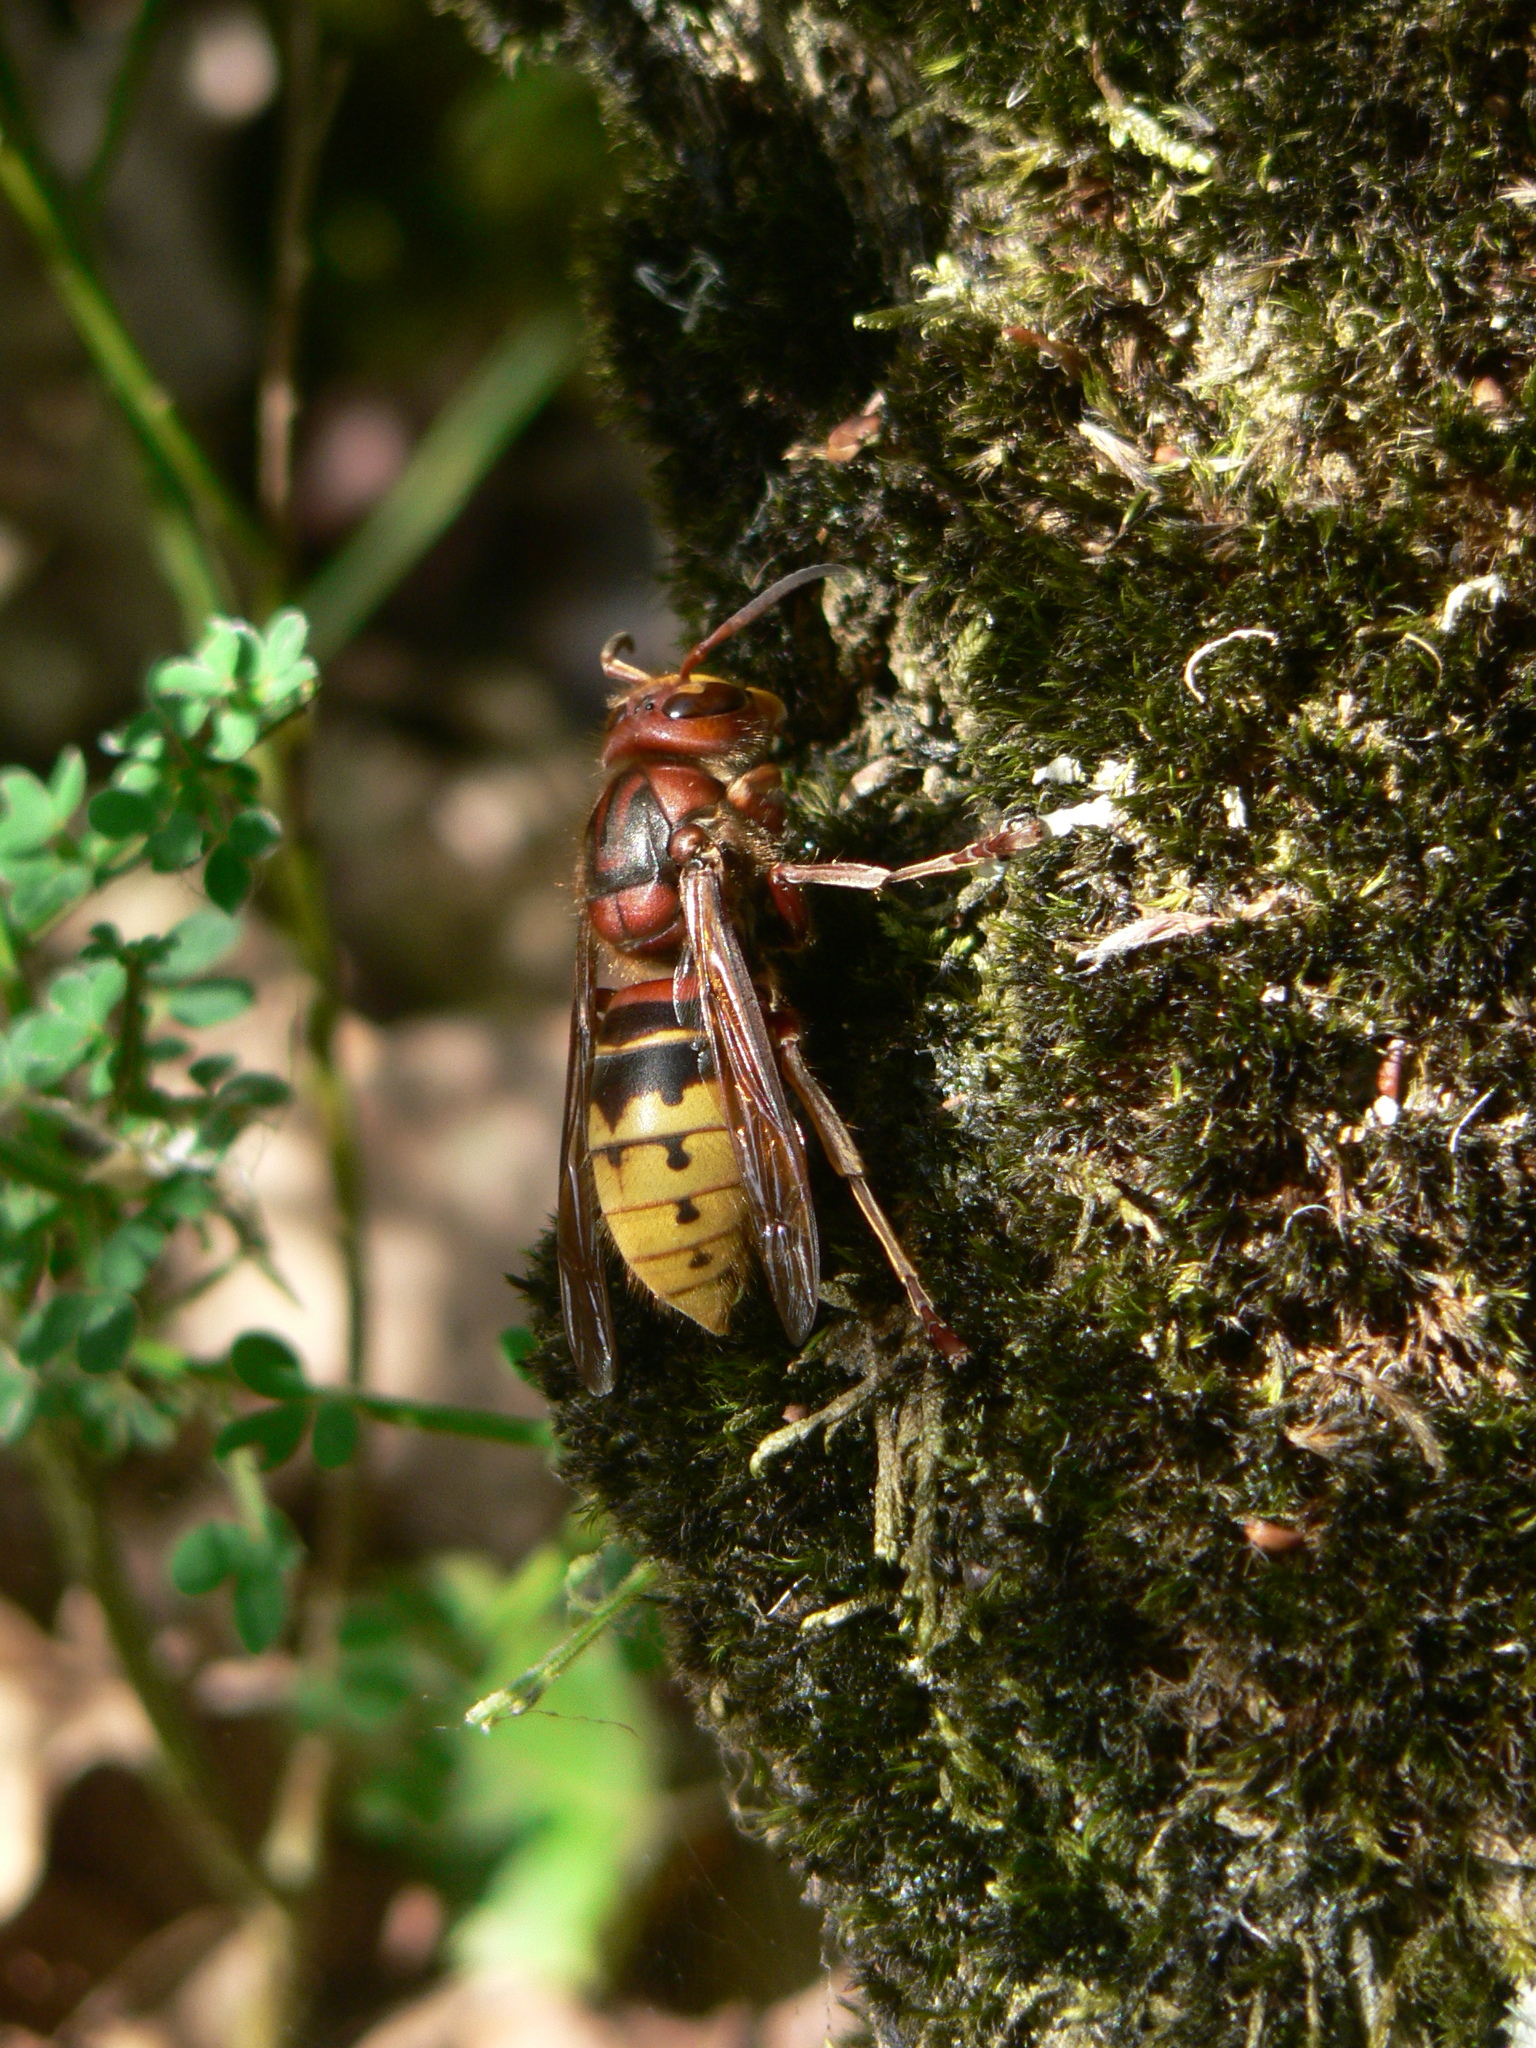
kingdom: Animalia
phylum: Arthropoda
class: Insecta
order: Hymenoptera
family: Vespidae
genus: Vespa
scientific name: Vespa crabro
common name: Hornet
